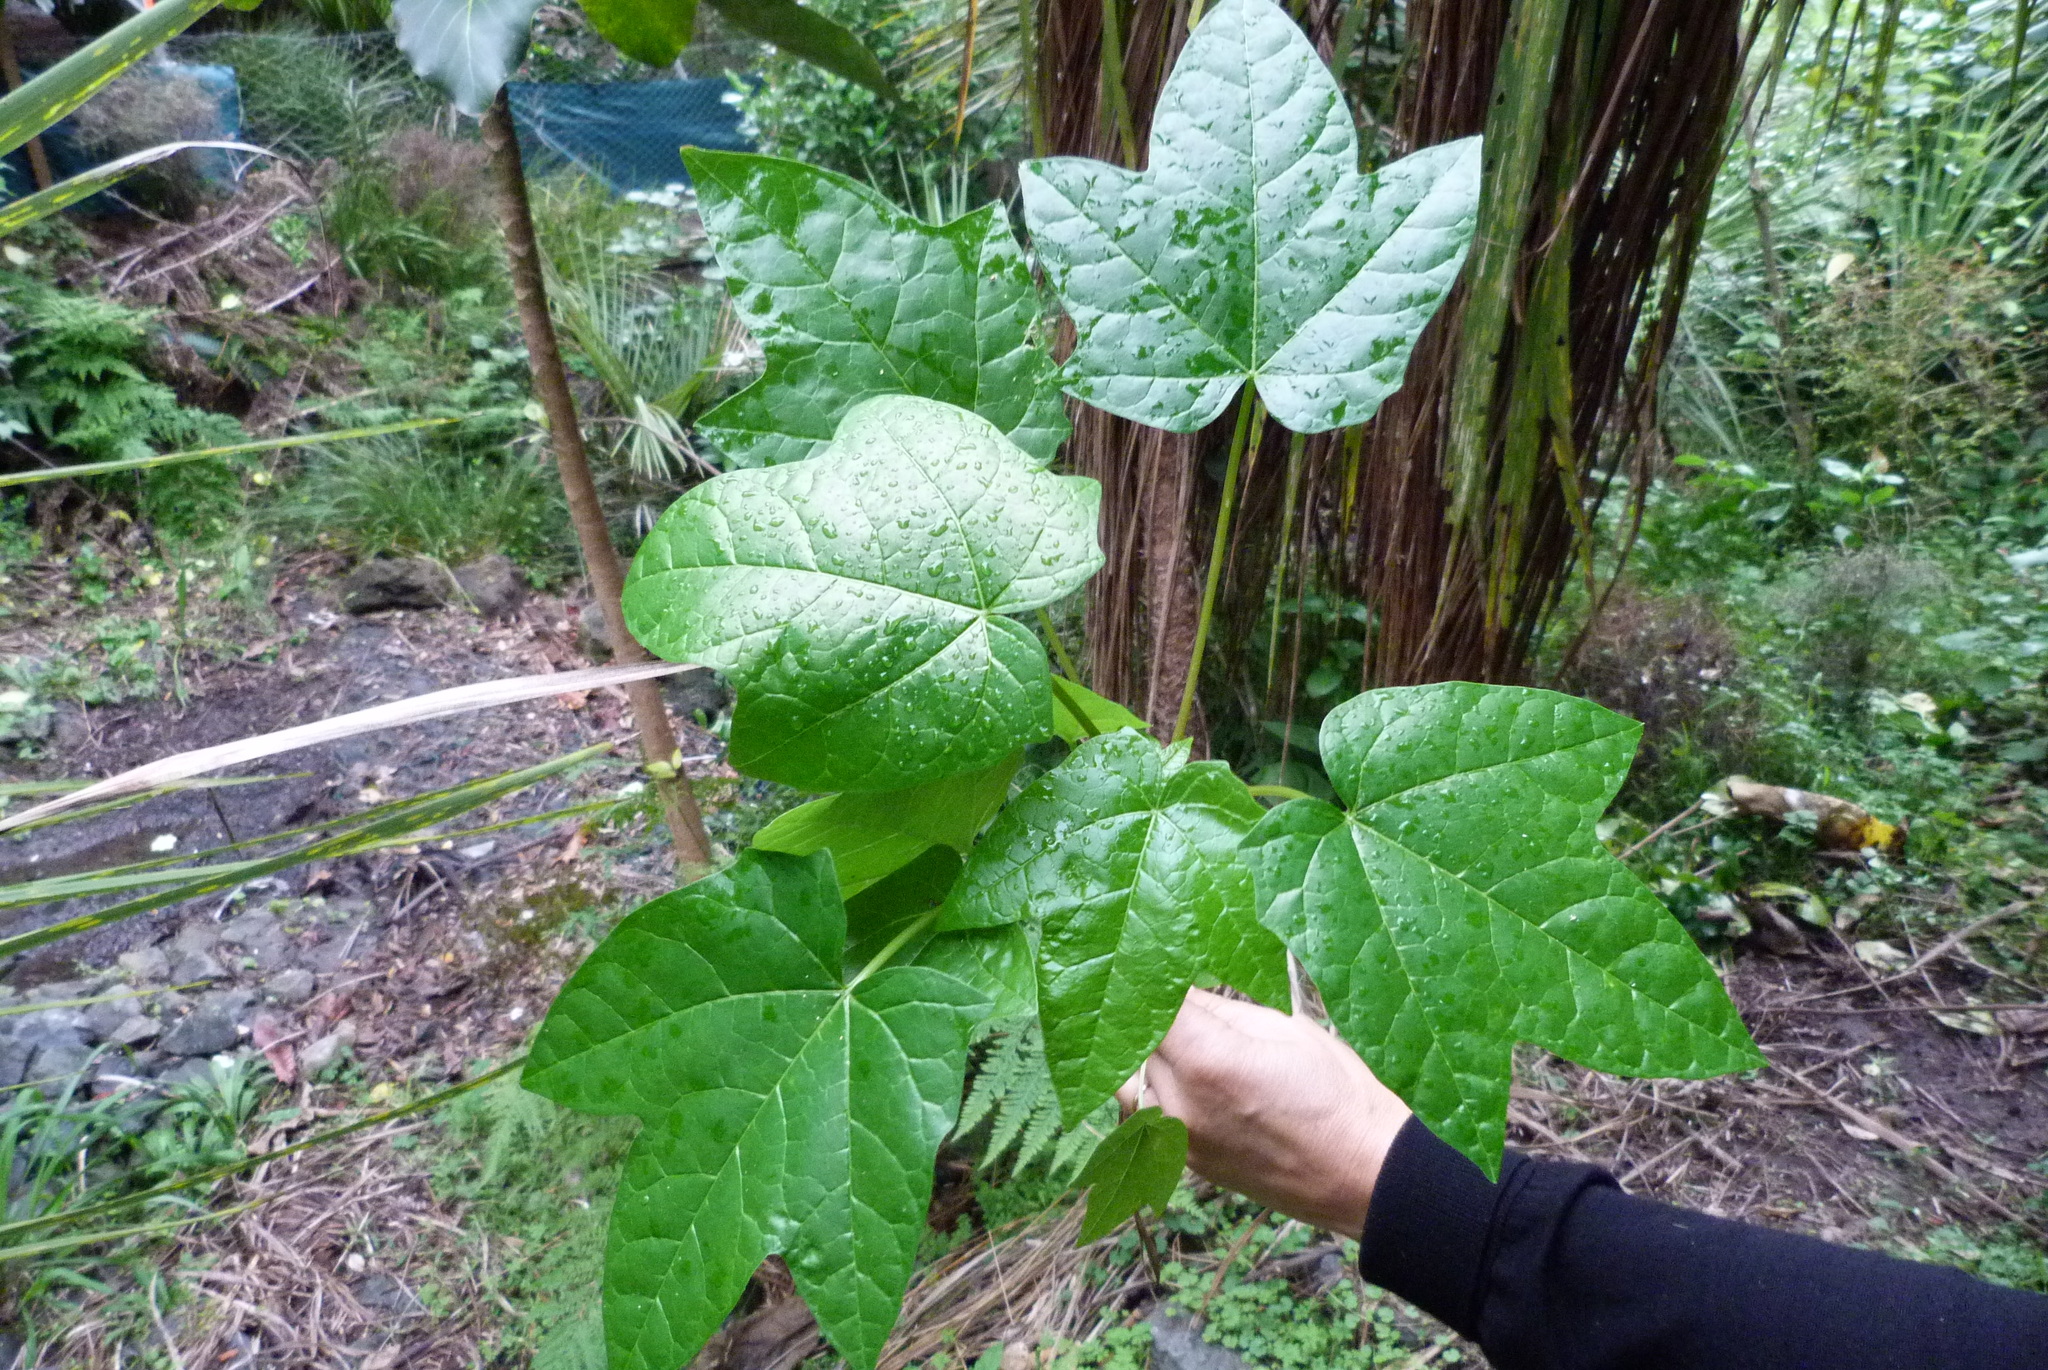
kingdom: Plantae
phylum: Tracheophyta
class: Magnoliopsida
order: Brassicales
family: Caricaceae
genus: Vasconcellea
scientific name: Vasconcellea pubescens
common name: Mountain papaya
